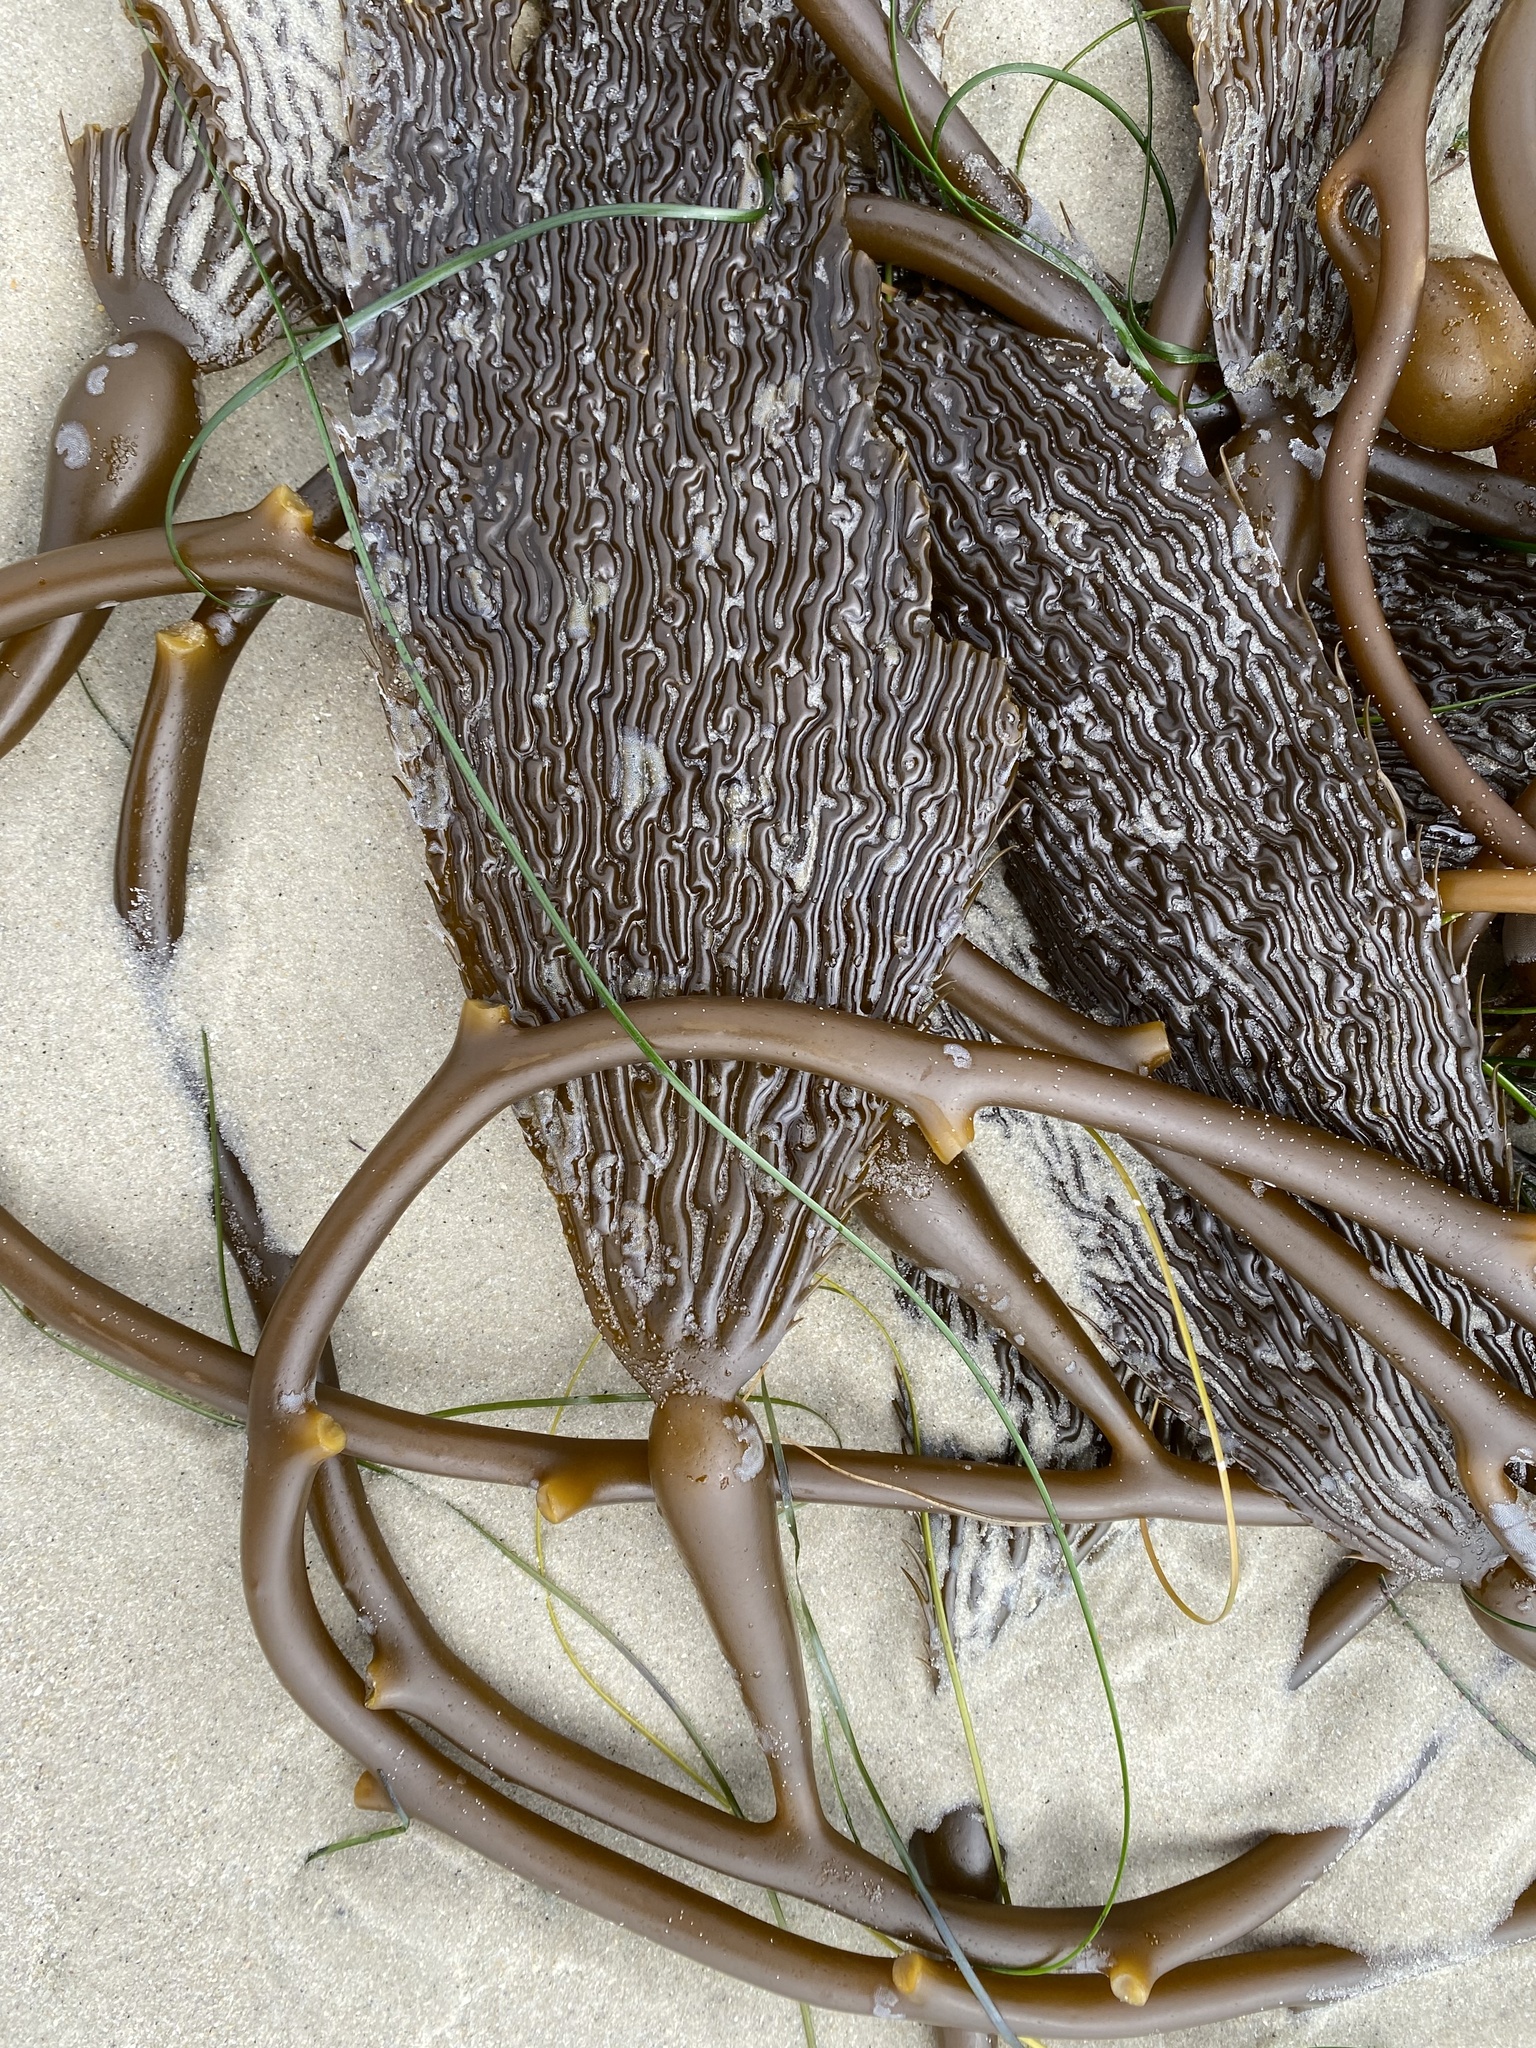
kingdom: Chromista
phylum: Ochrophyta
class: Phaeophyceae
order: Laminariales
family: Laminariaceae
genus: Macrocystis
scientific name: Macrocystis pyrifera
